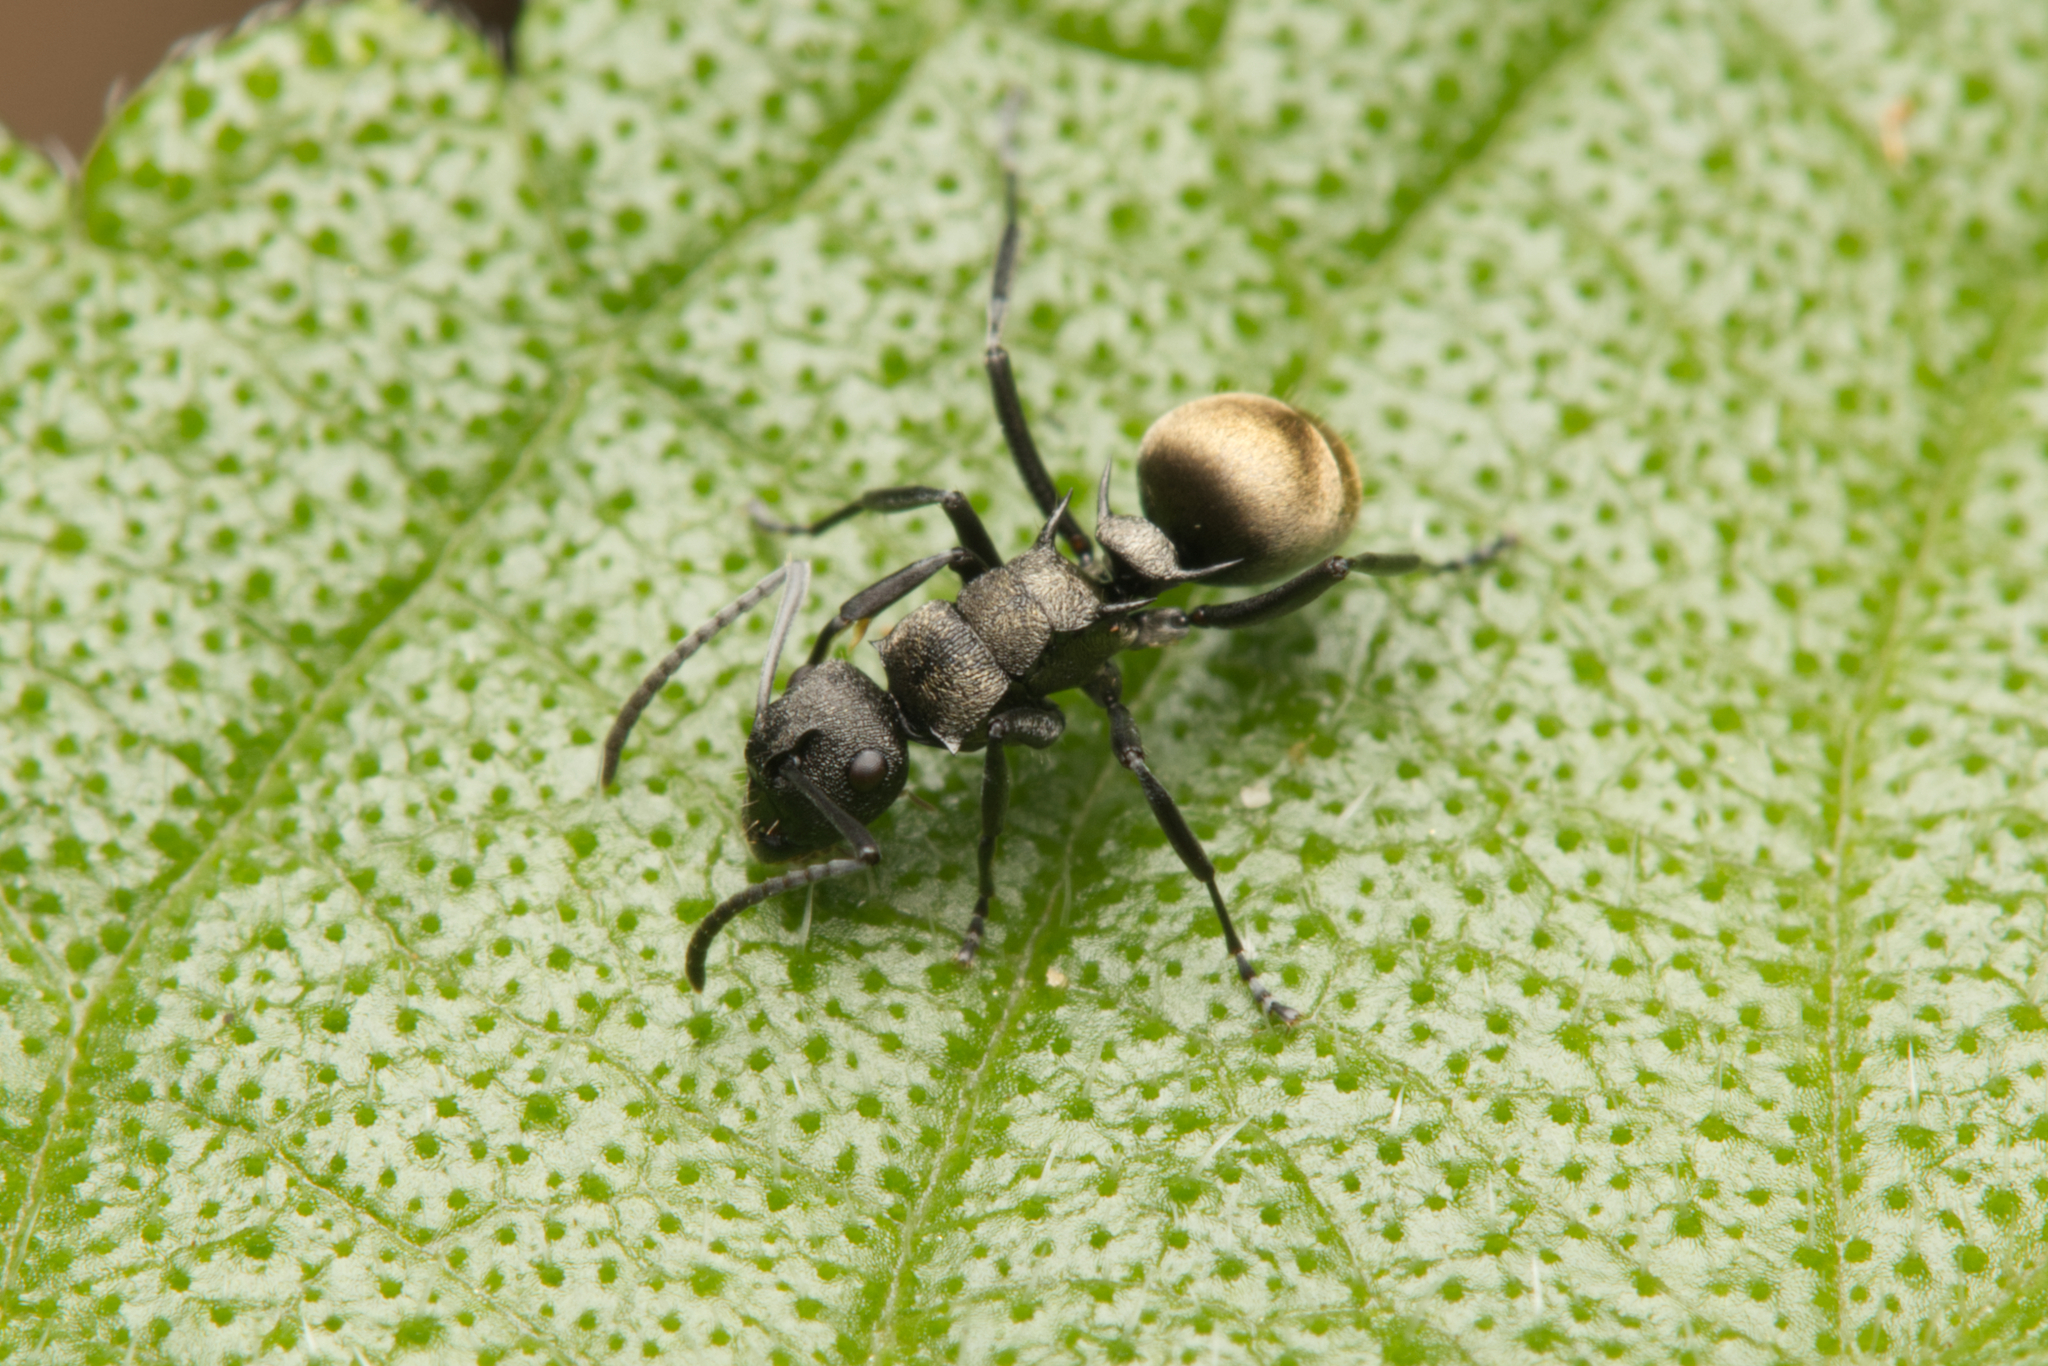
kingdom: Animalia
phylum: Arthropoda
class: Insecta
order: Hymenoptera
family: Formicidae
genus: Polyrhachis
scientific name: Polyrhachis mjobergi
